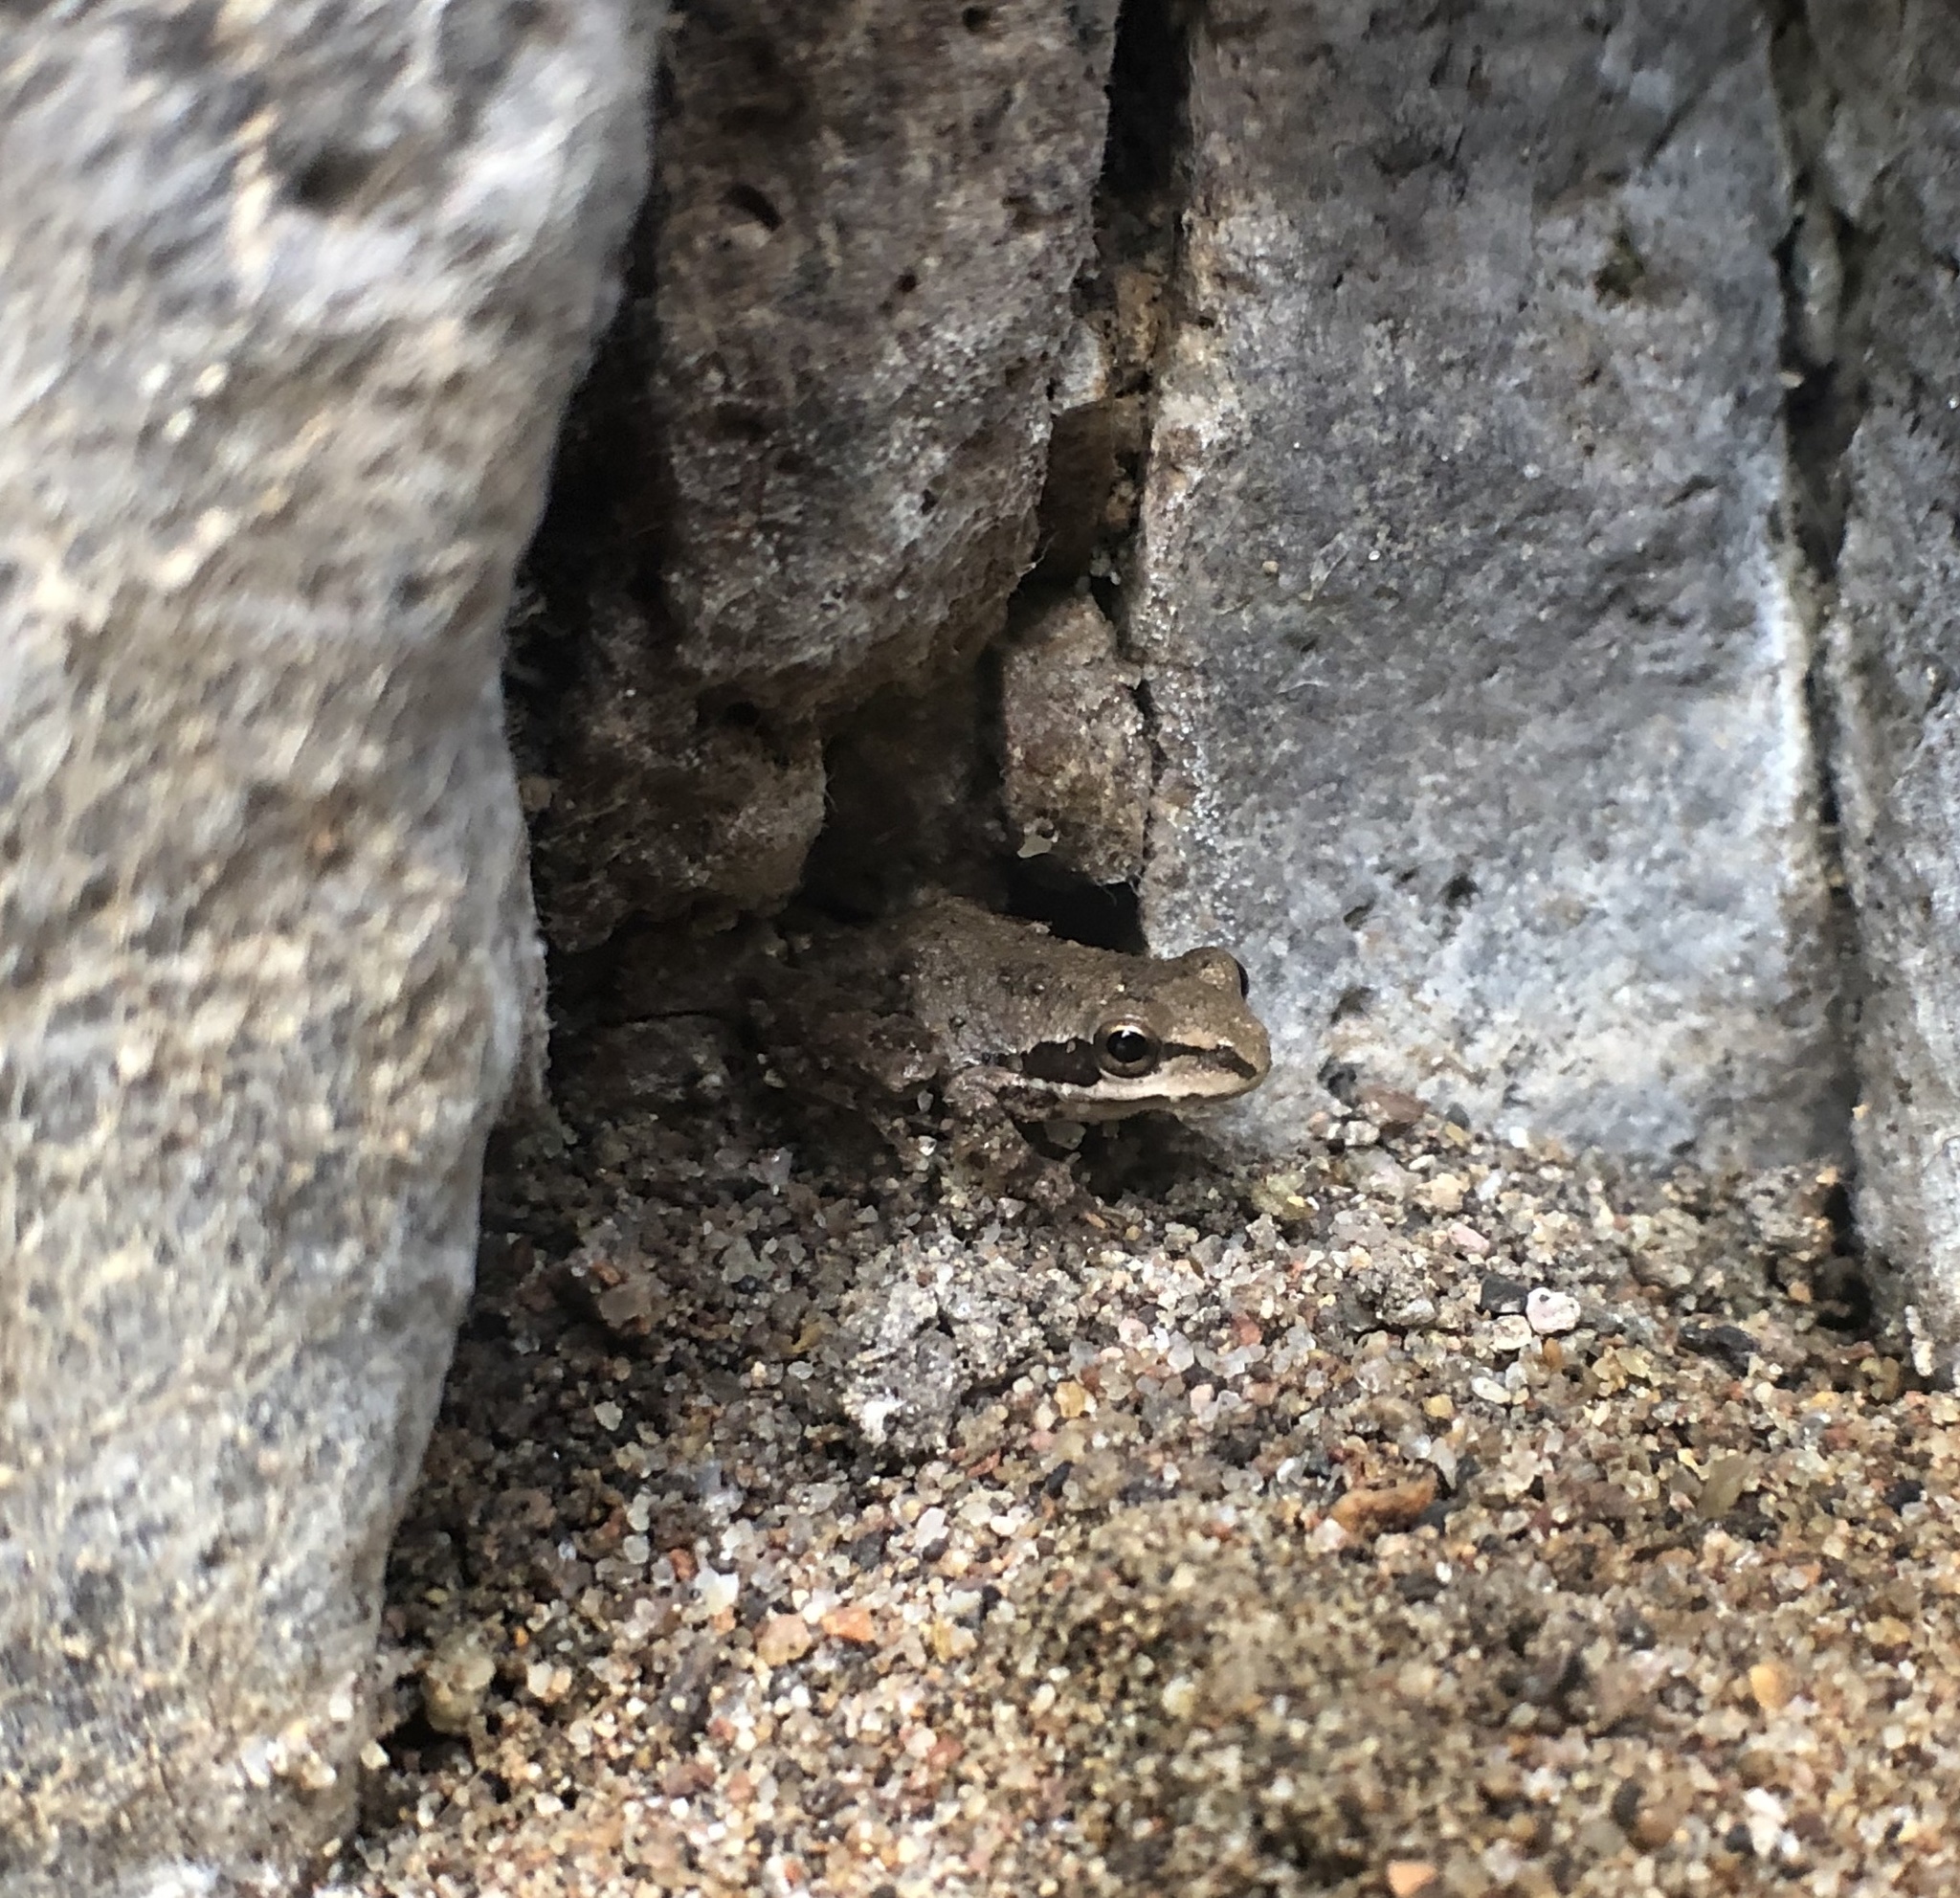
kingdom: Animalia
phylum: Chordata
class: Amphibia
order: Anura
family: Hylidae
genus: Pseudacris
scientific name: Pseudacris regilla
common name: Pacific chorus frog
